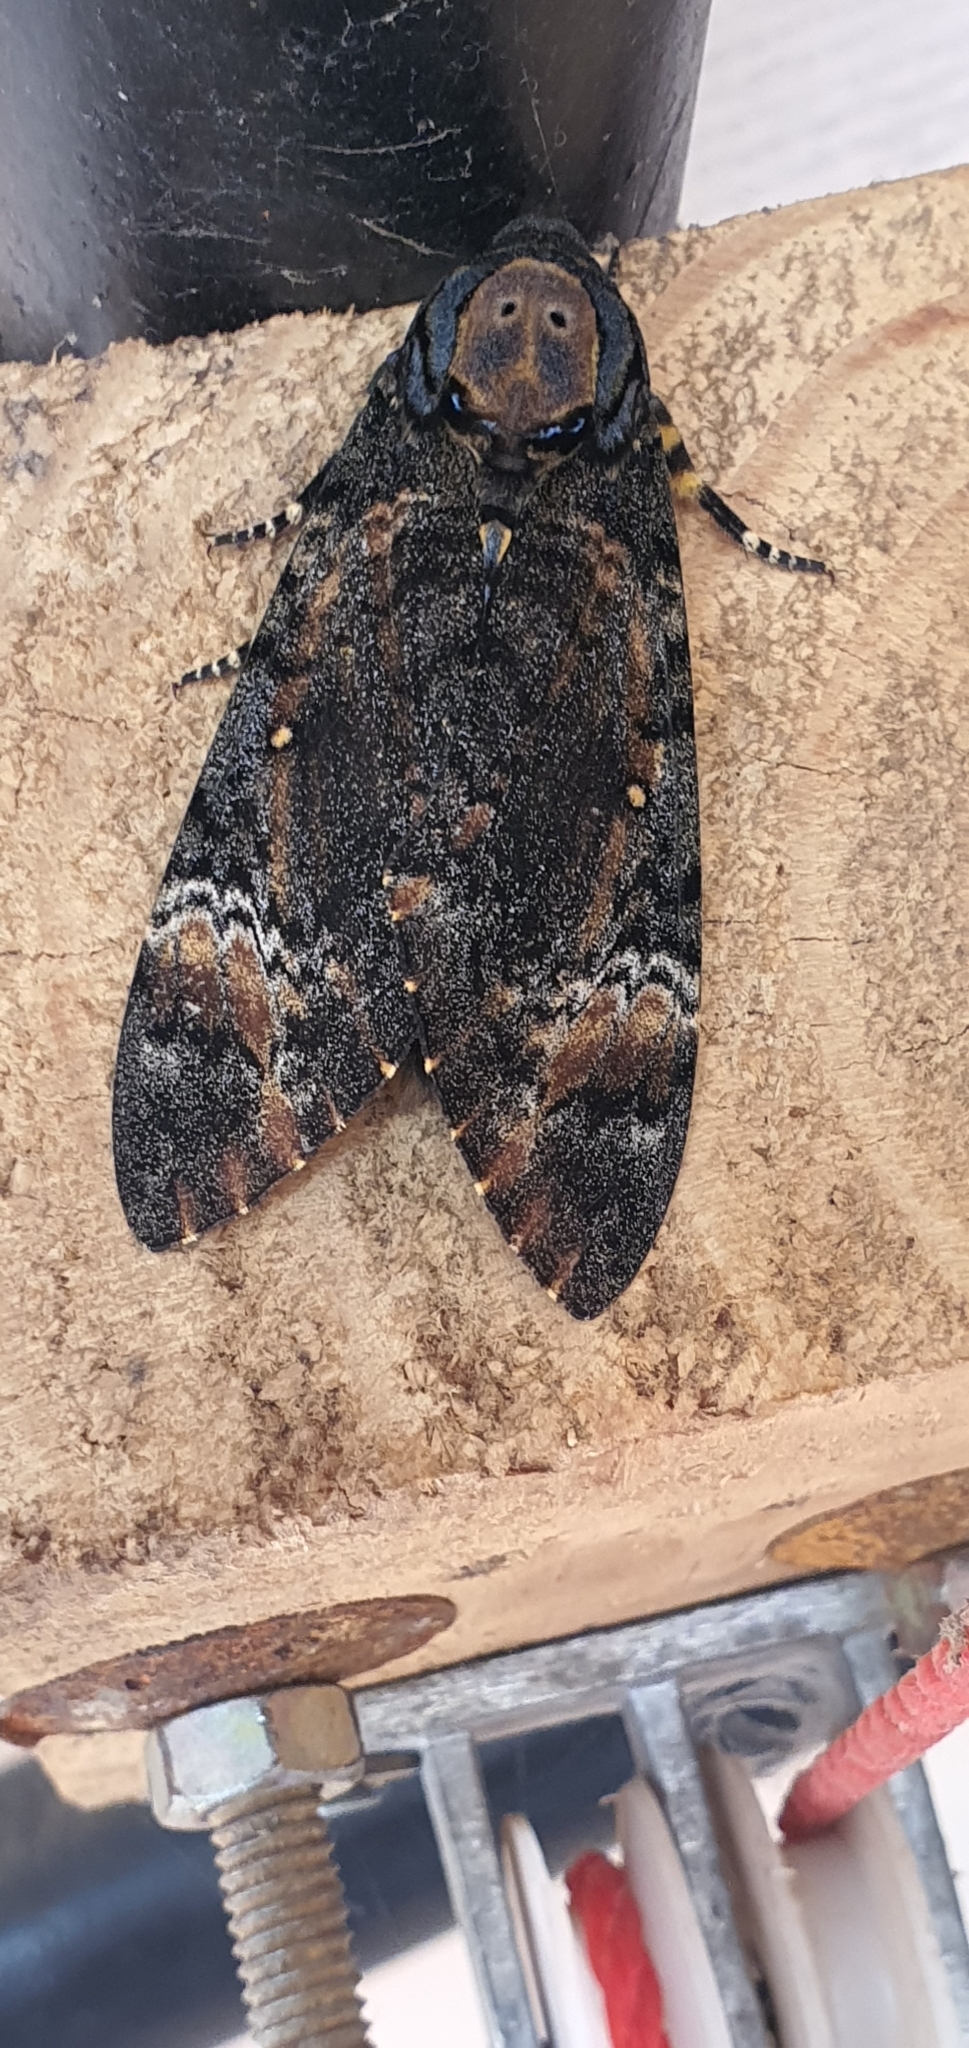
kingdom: Animalia
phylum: Arthropoda
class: Insecta
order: Lepidoptera
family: Sphingidae
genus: Acherontia
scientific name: Acherontia styx
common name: Death's-head hawk moth
